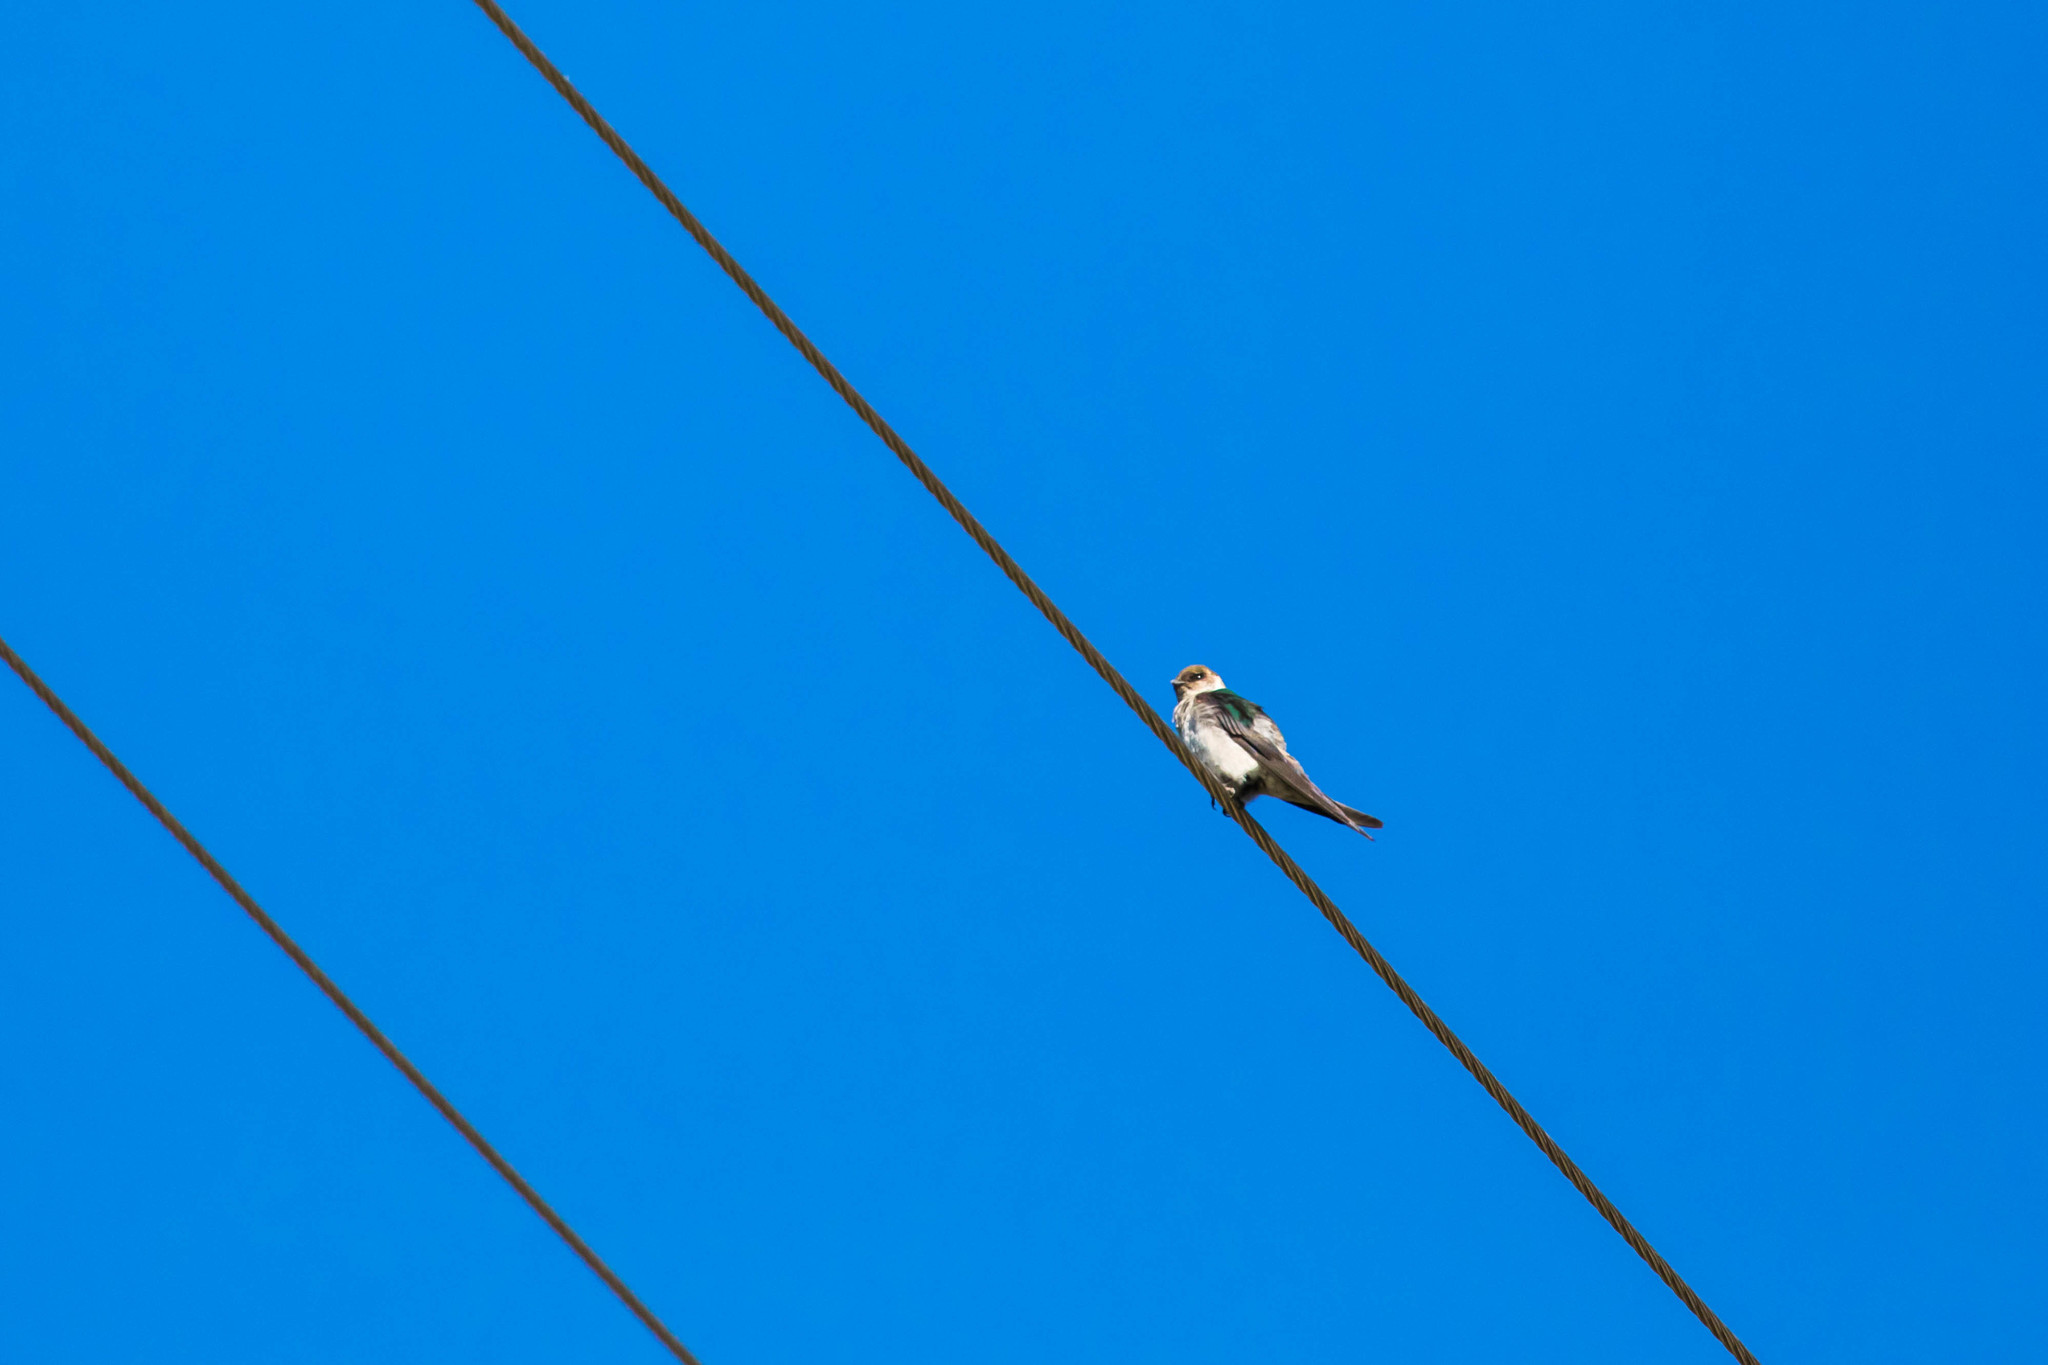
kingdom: Animalia
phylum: Chordata
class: Aves
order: Passeriformes
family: Hirundinidae
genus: Tachycineta
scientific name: Tachycineta thalassina
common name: Violet-green swallow
